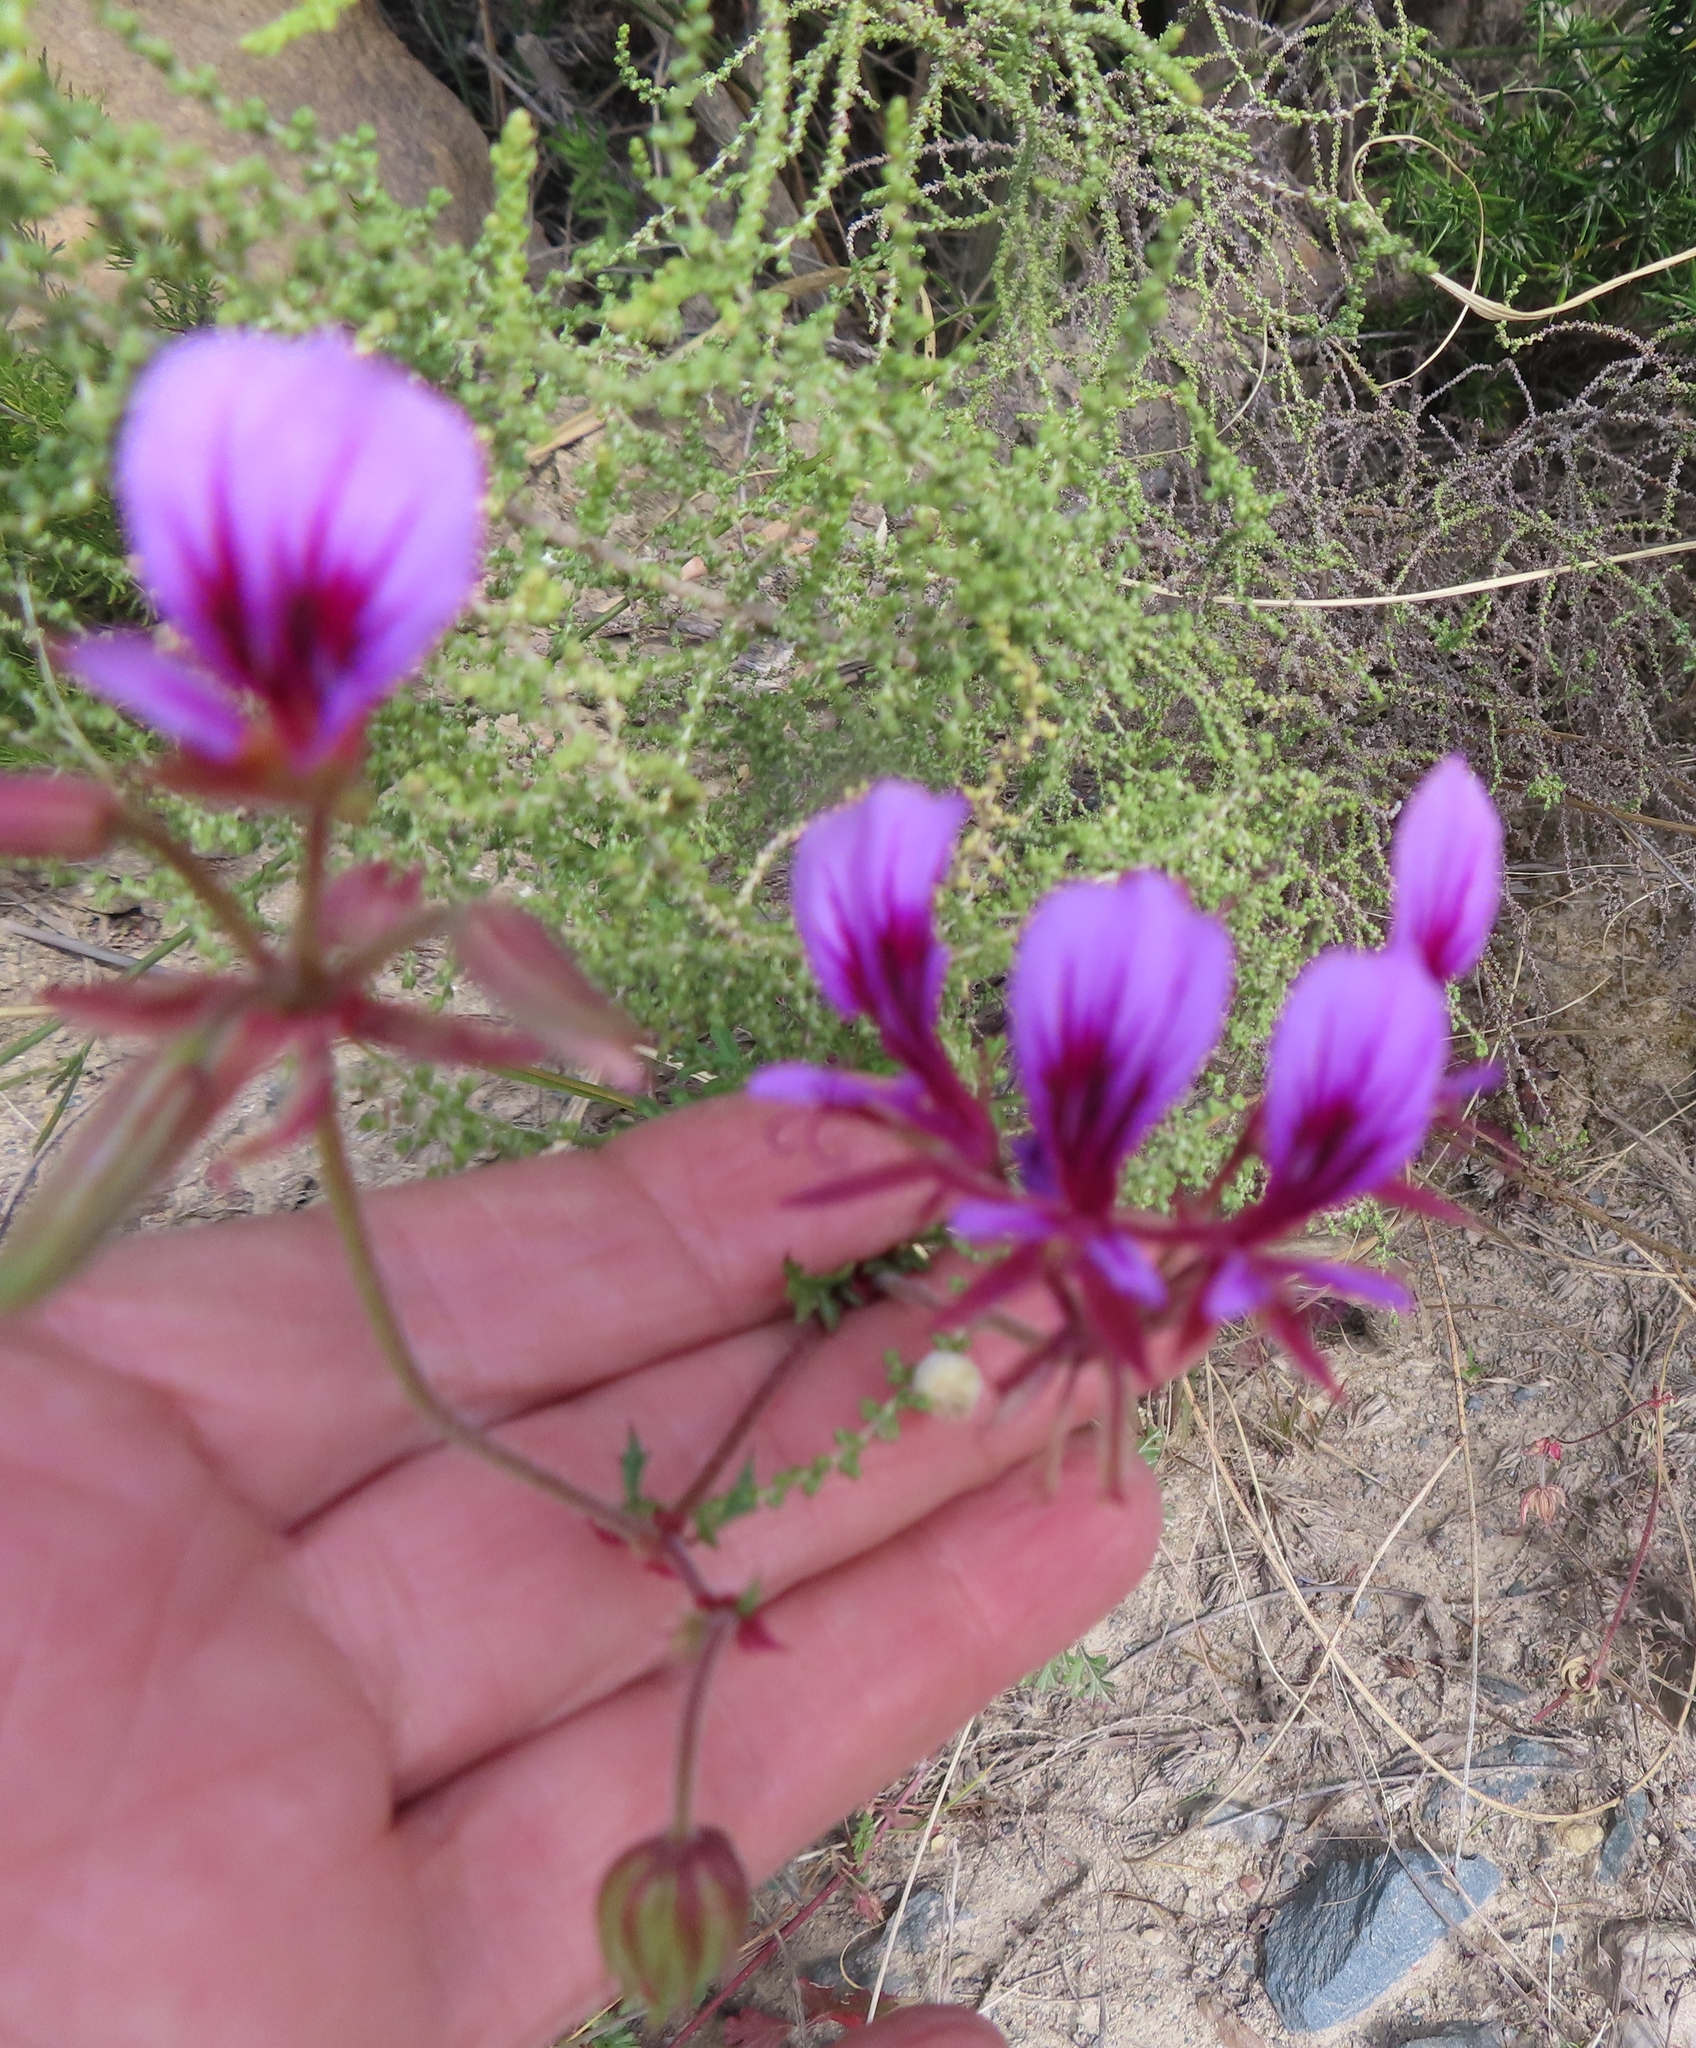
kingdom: Plantae
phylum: Tracheophyta
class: Magnoliopsida
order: Geraniales
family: Geraniaceae
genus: Pelargonium
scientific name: Pelargonium multicaule
